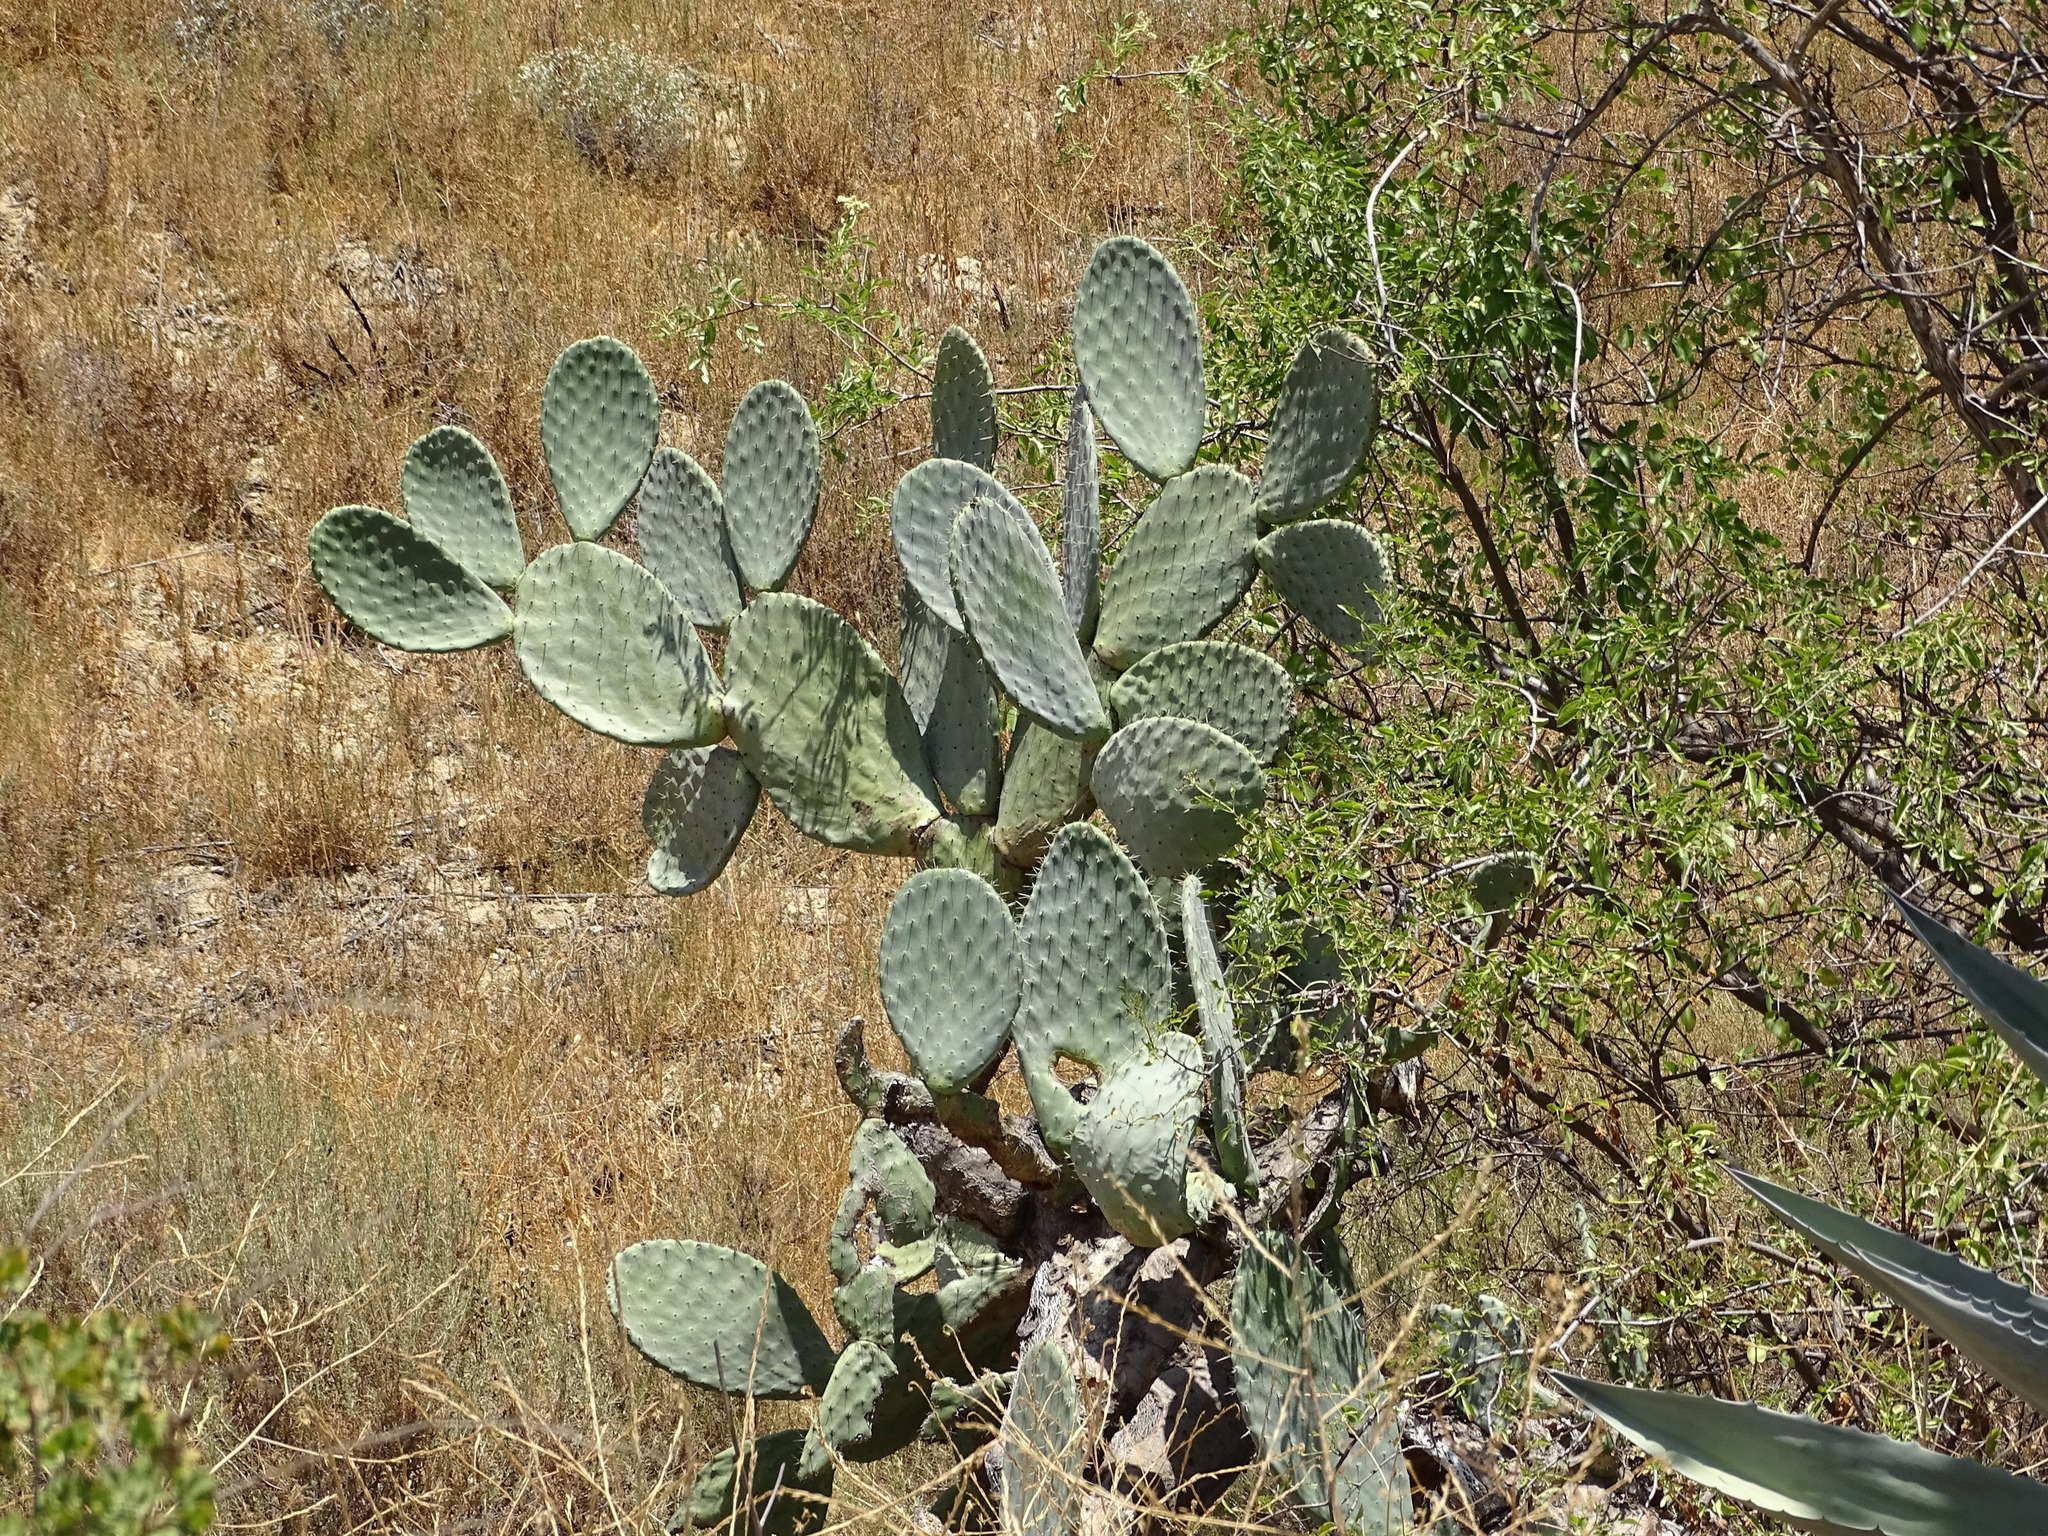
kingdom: Plantae
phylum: Tracheophyta
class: Magnoliopsida
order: Caryophyllales
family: Cactaceae
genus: Opuntia
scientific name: Opuntia ficus-indica
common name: Barbary fig
